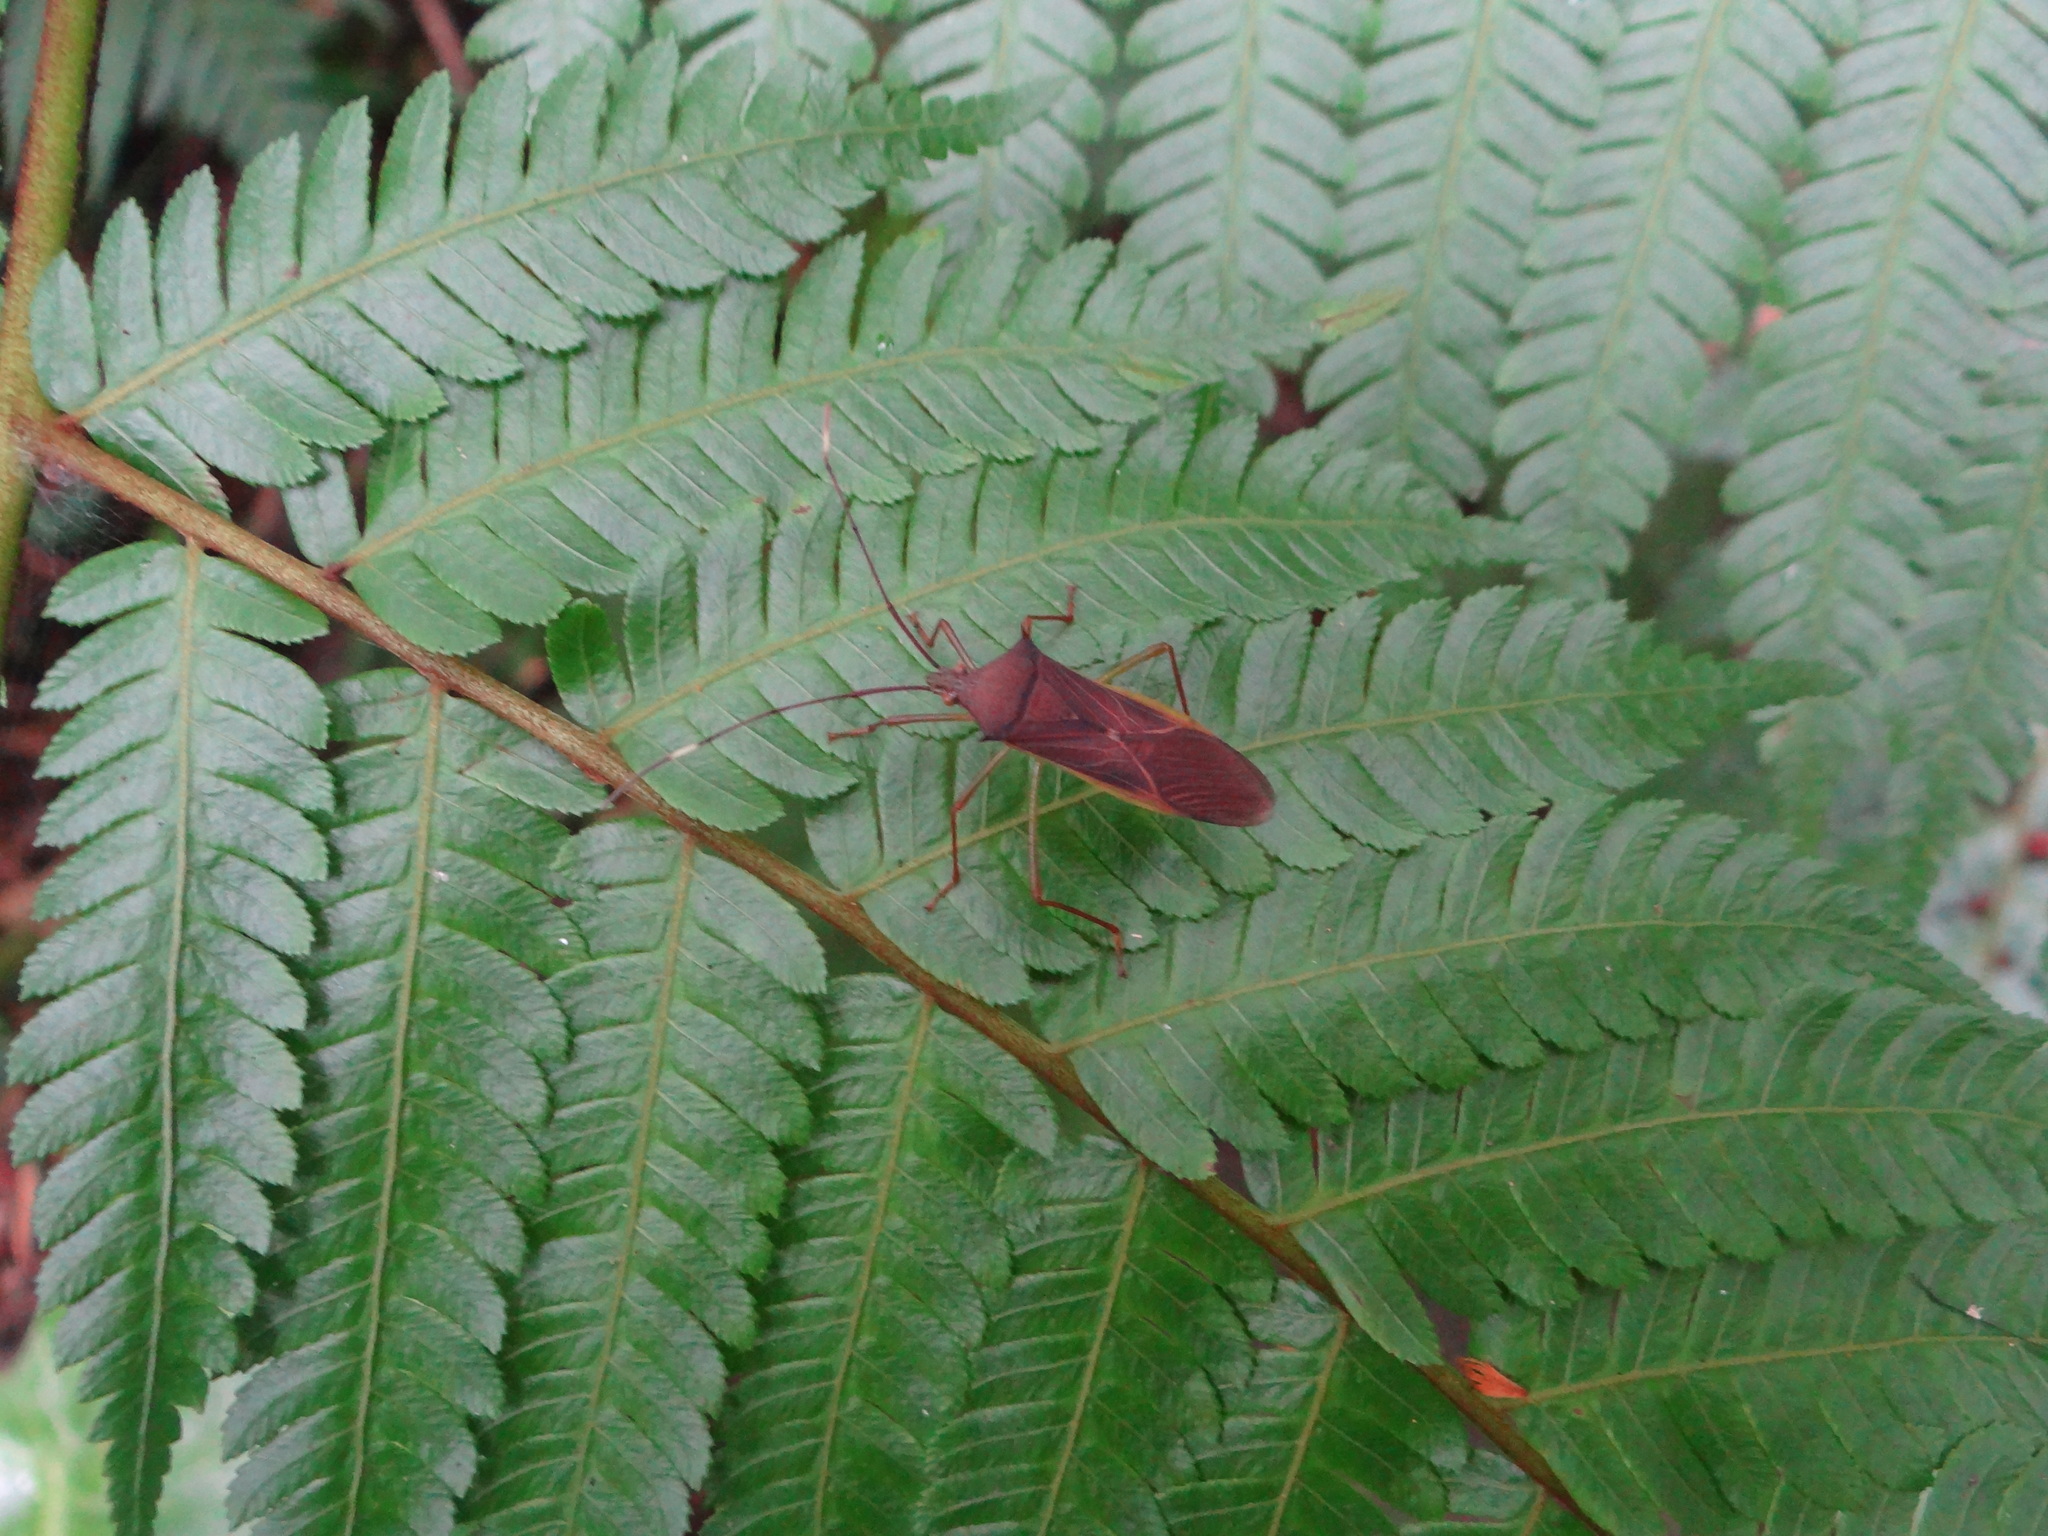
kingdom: Animalia
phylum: Arthropoda
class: Insecta
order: Hemiptera
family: Coreidae
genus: Paradasynus
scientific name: Paradasynus spinosus
